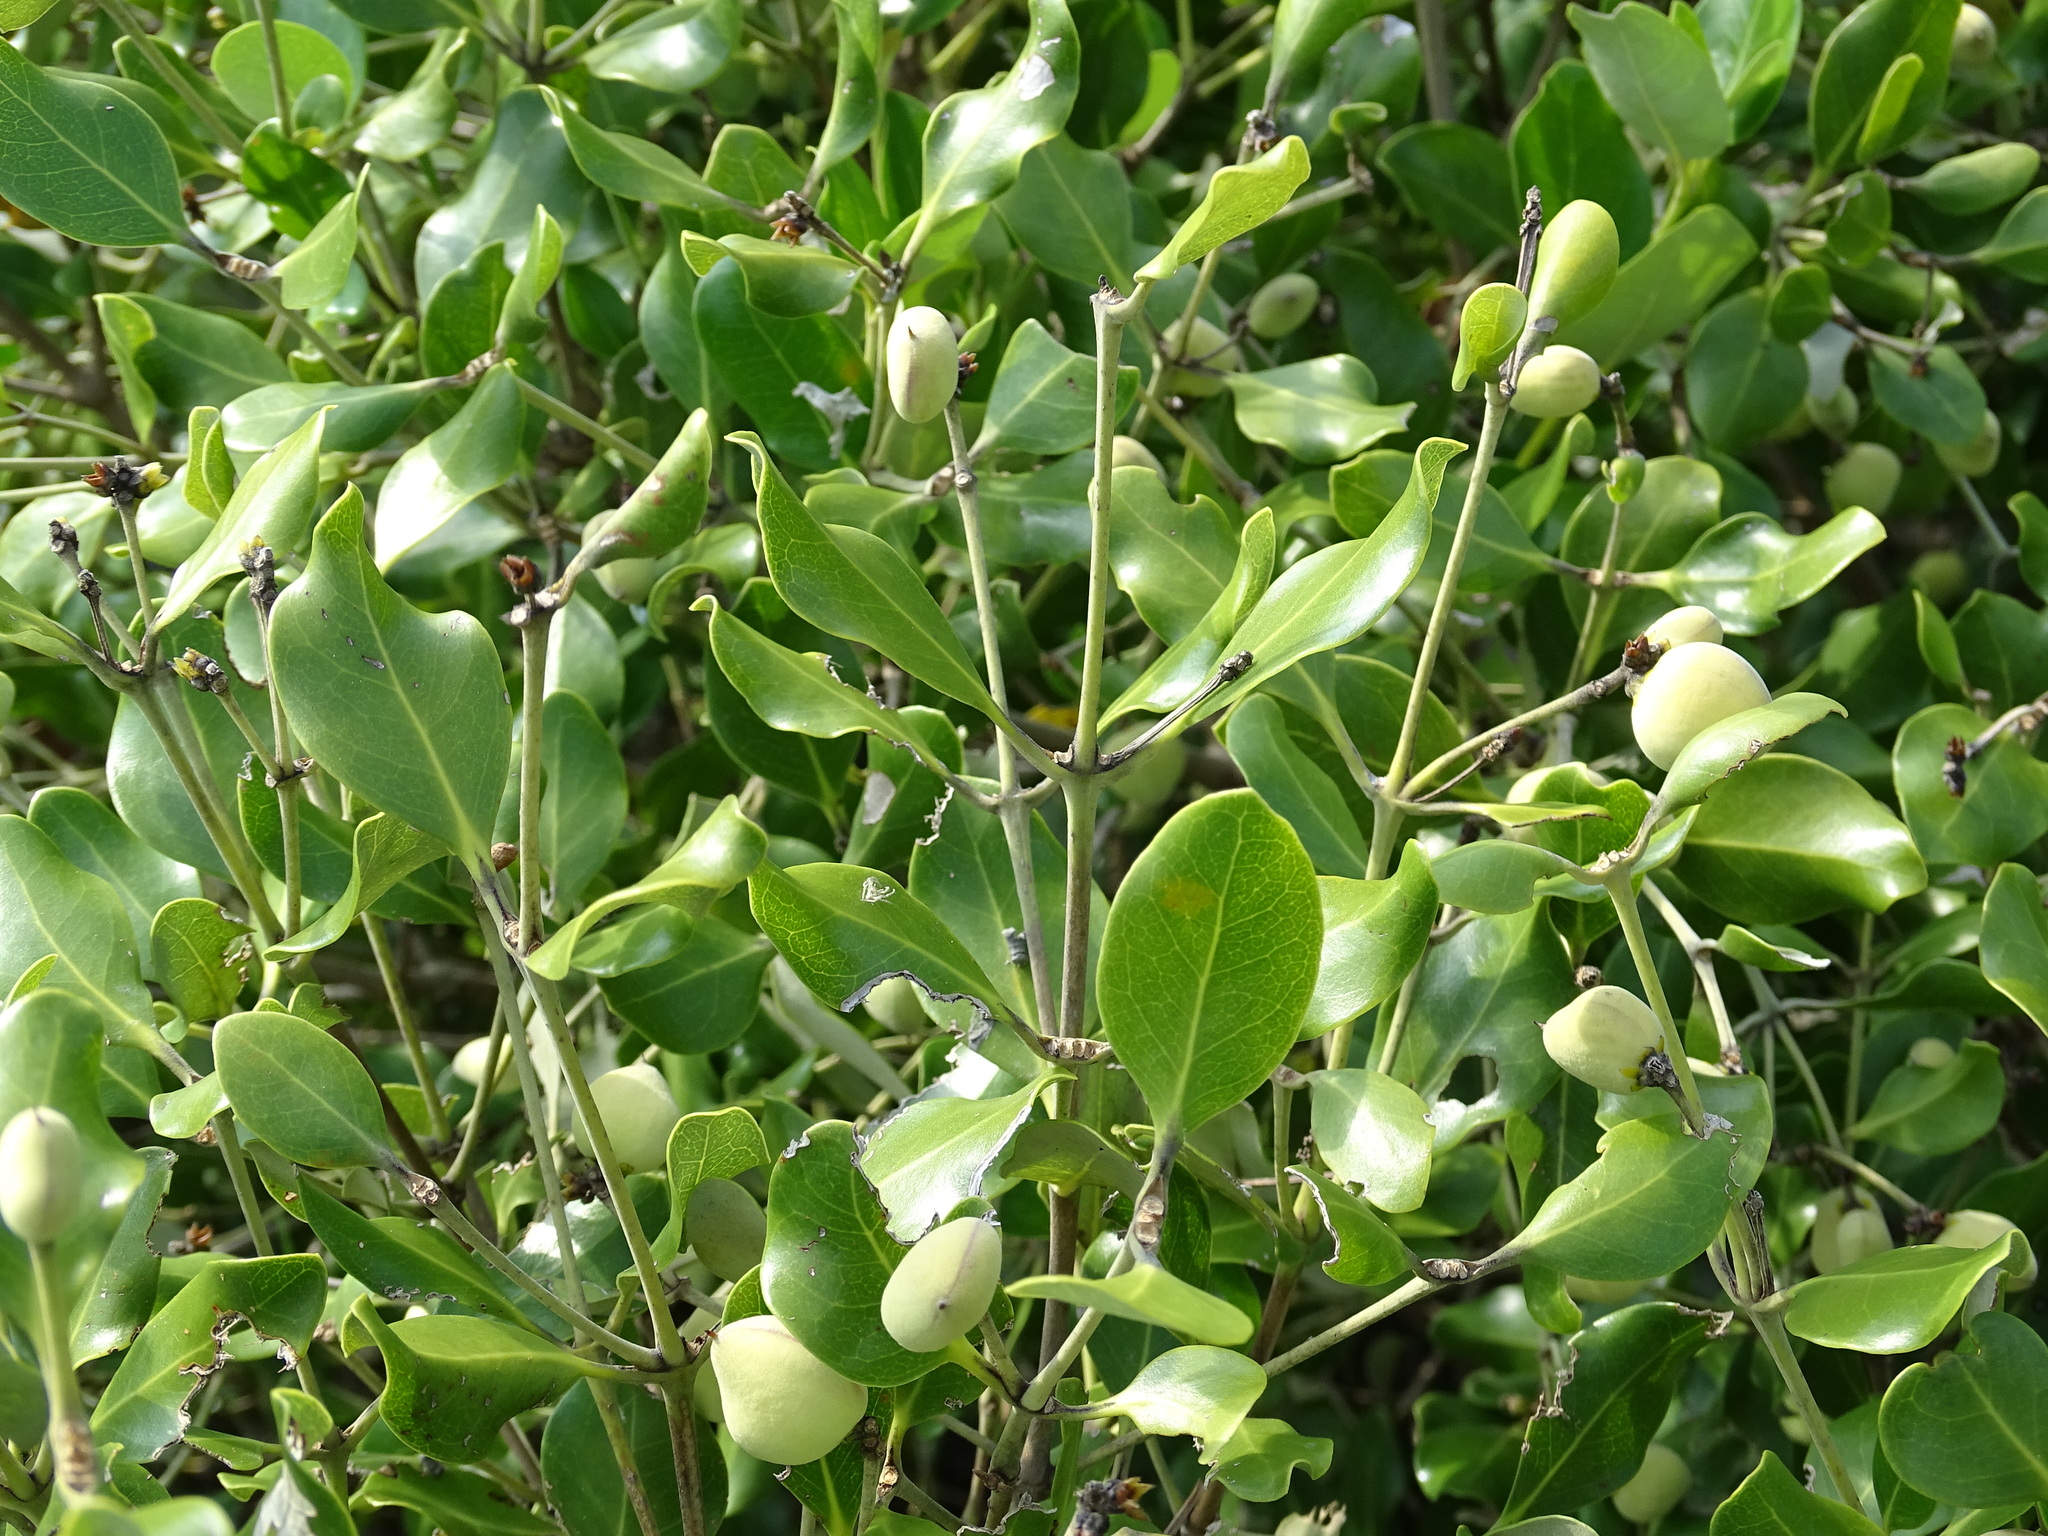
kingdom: Plantae
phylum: Tracheophyta
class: Magnoliopsida
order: Lamiales
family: Acanthaceae
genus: Avicennia
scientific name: Avicennia marina
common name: Gray mangrove
